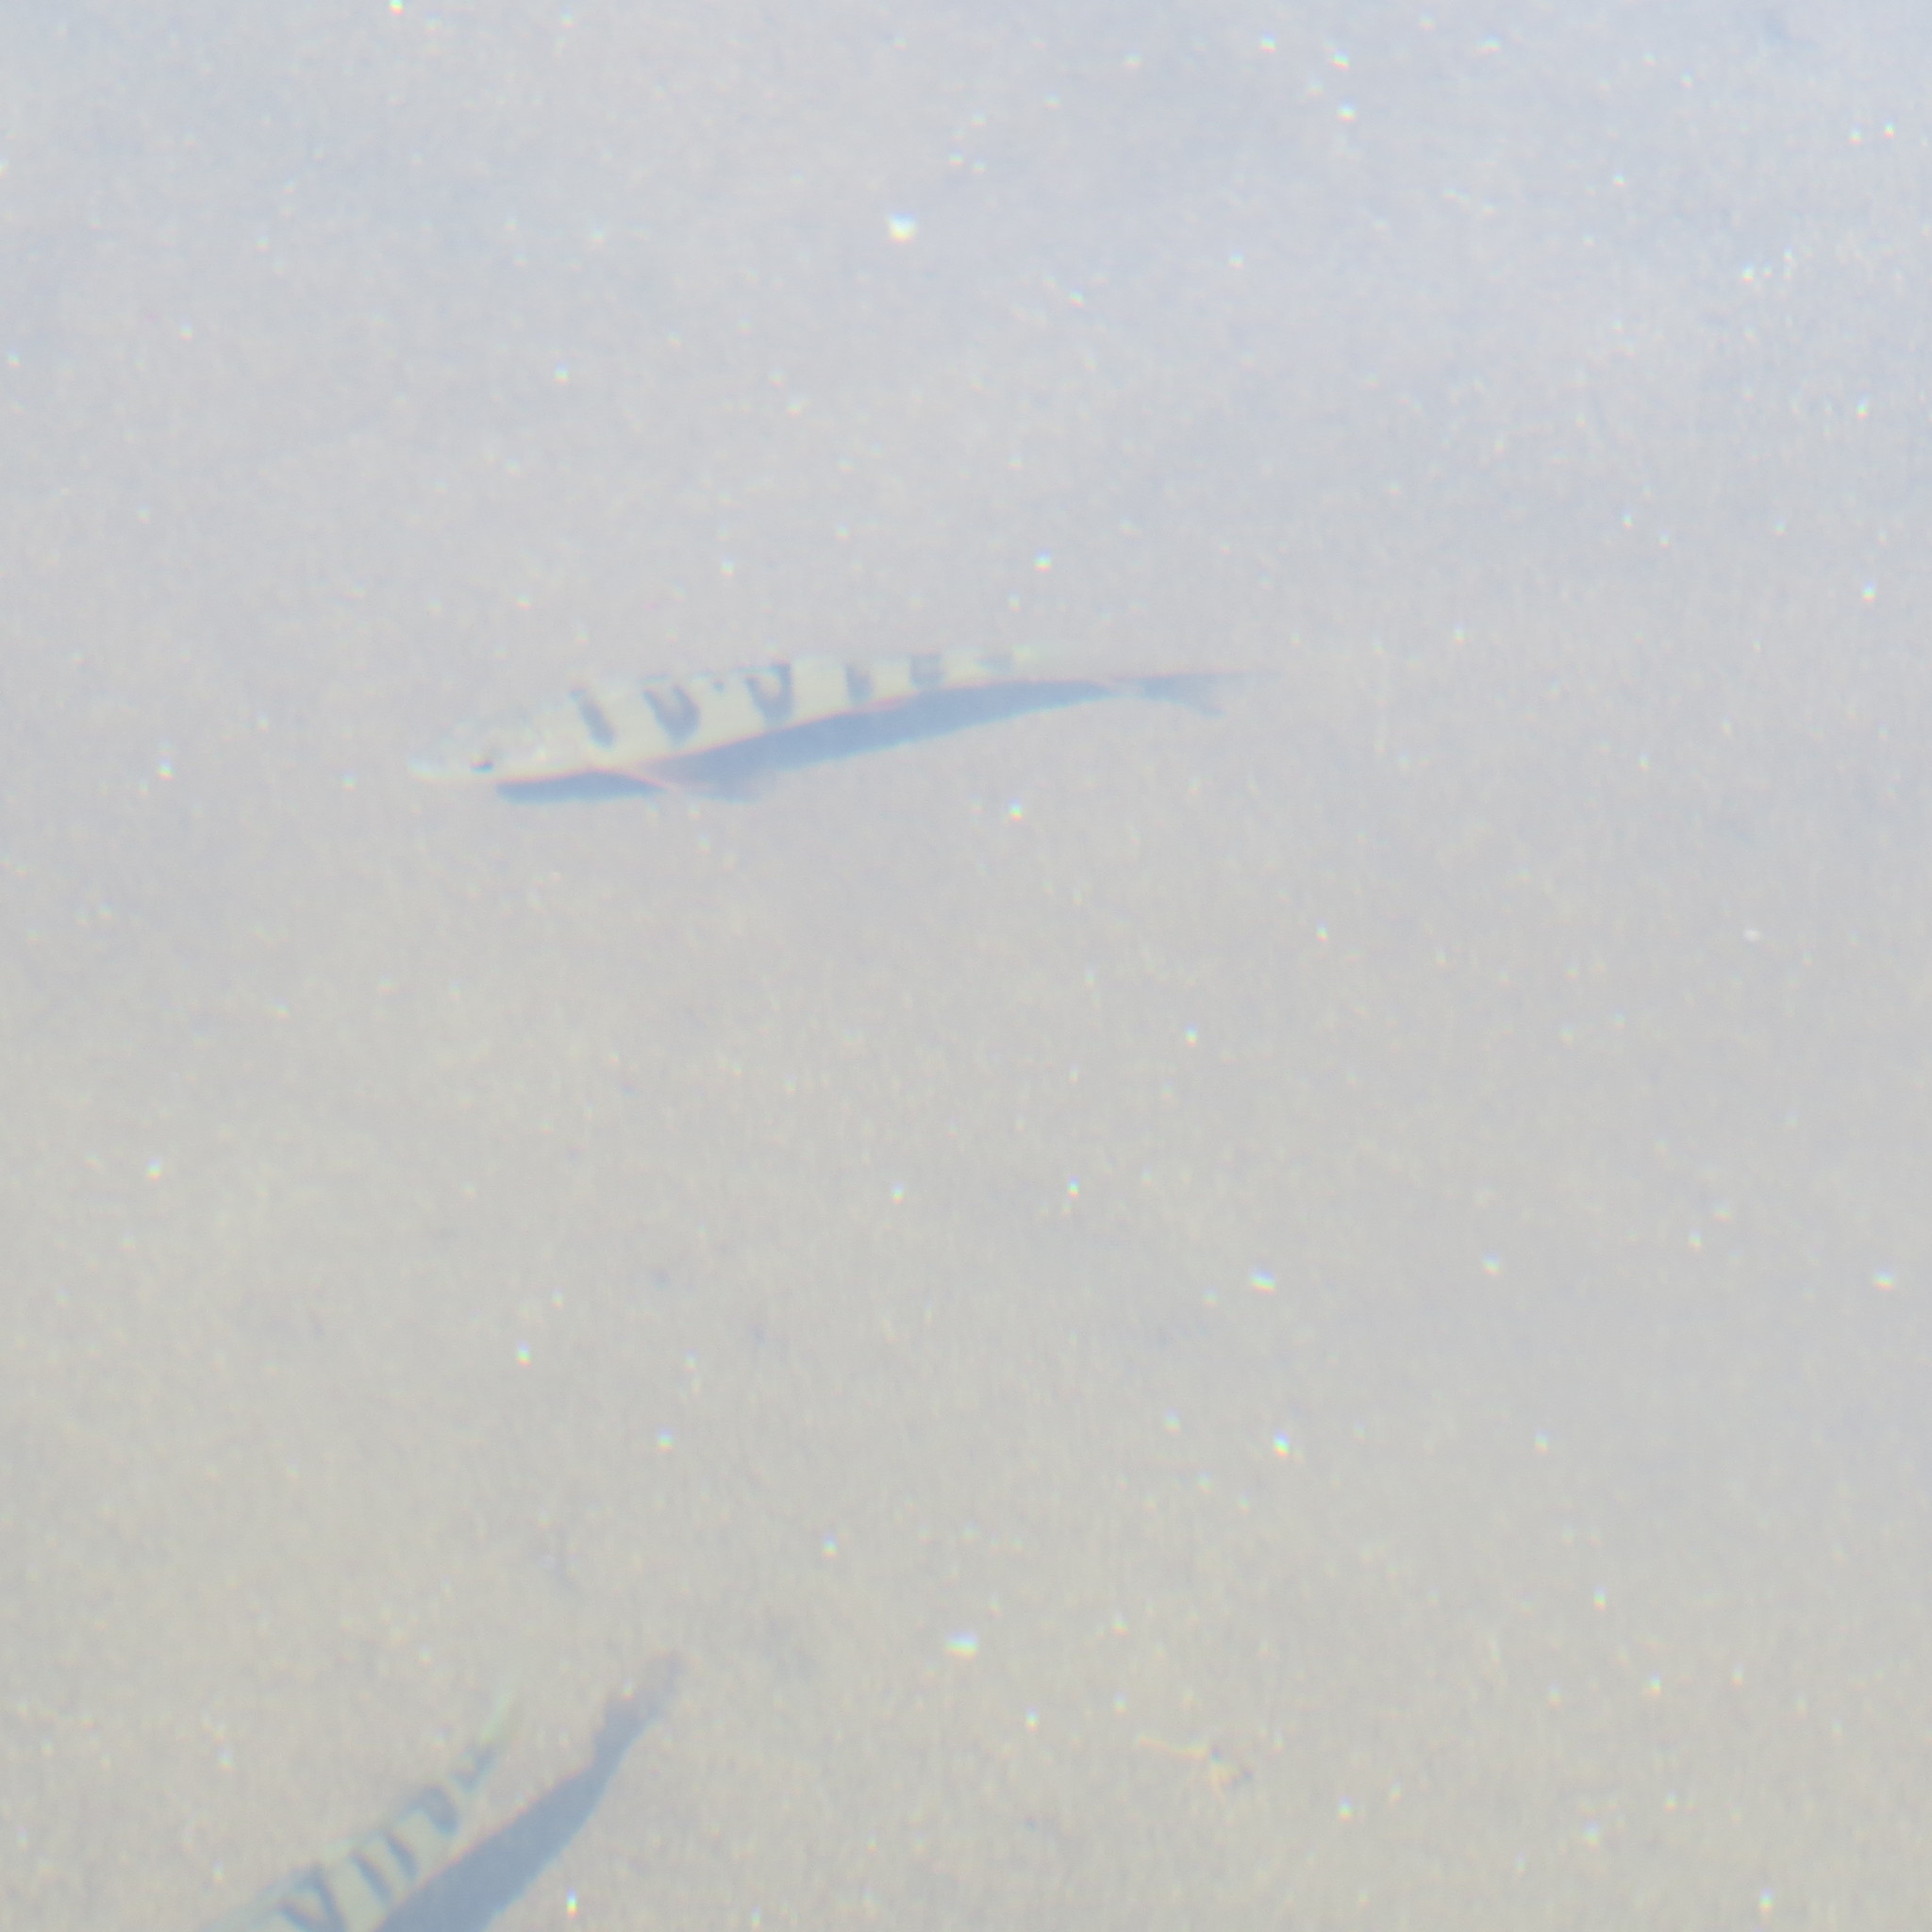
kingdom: Animalia
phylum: Chordata
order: Perciformes
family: Percidae
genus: Perca
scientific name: Perca fluviatilis
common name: Perch
